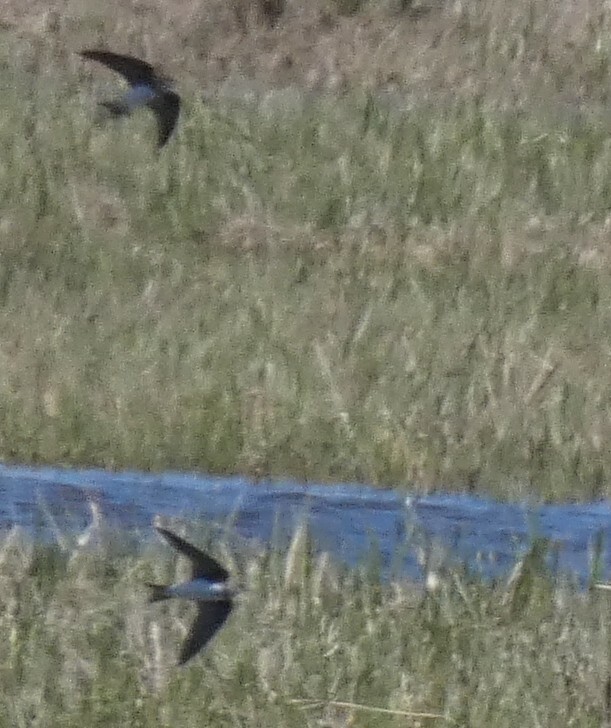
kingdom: Animalia
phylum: Chordata
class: Aves
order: Passeriformes
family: Hirundinidae
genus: Riparia
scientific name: Riparia riparia
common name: Sand martin
